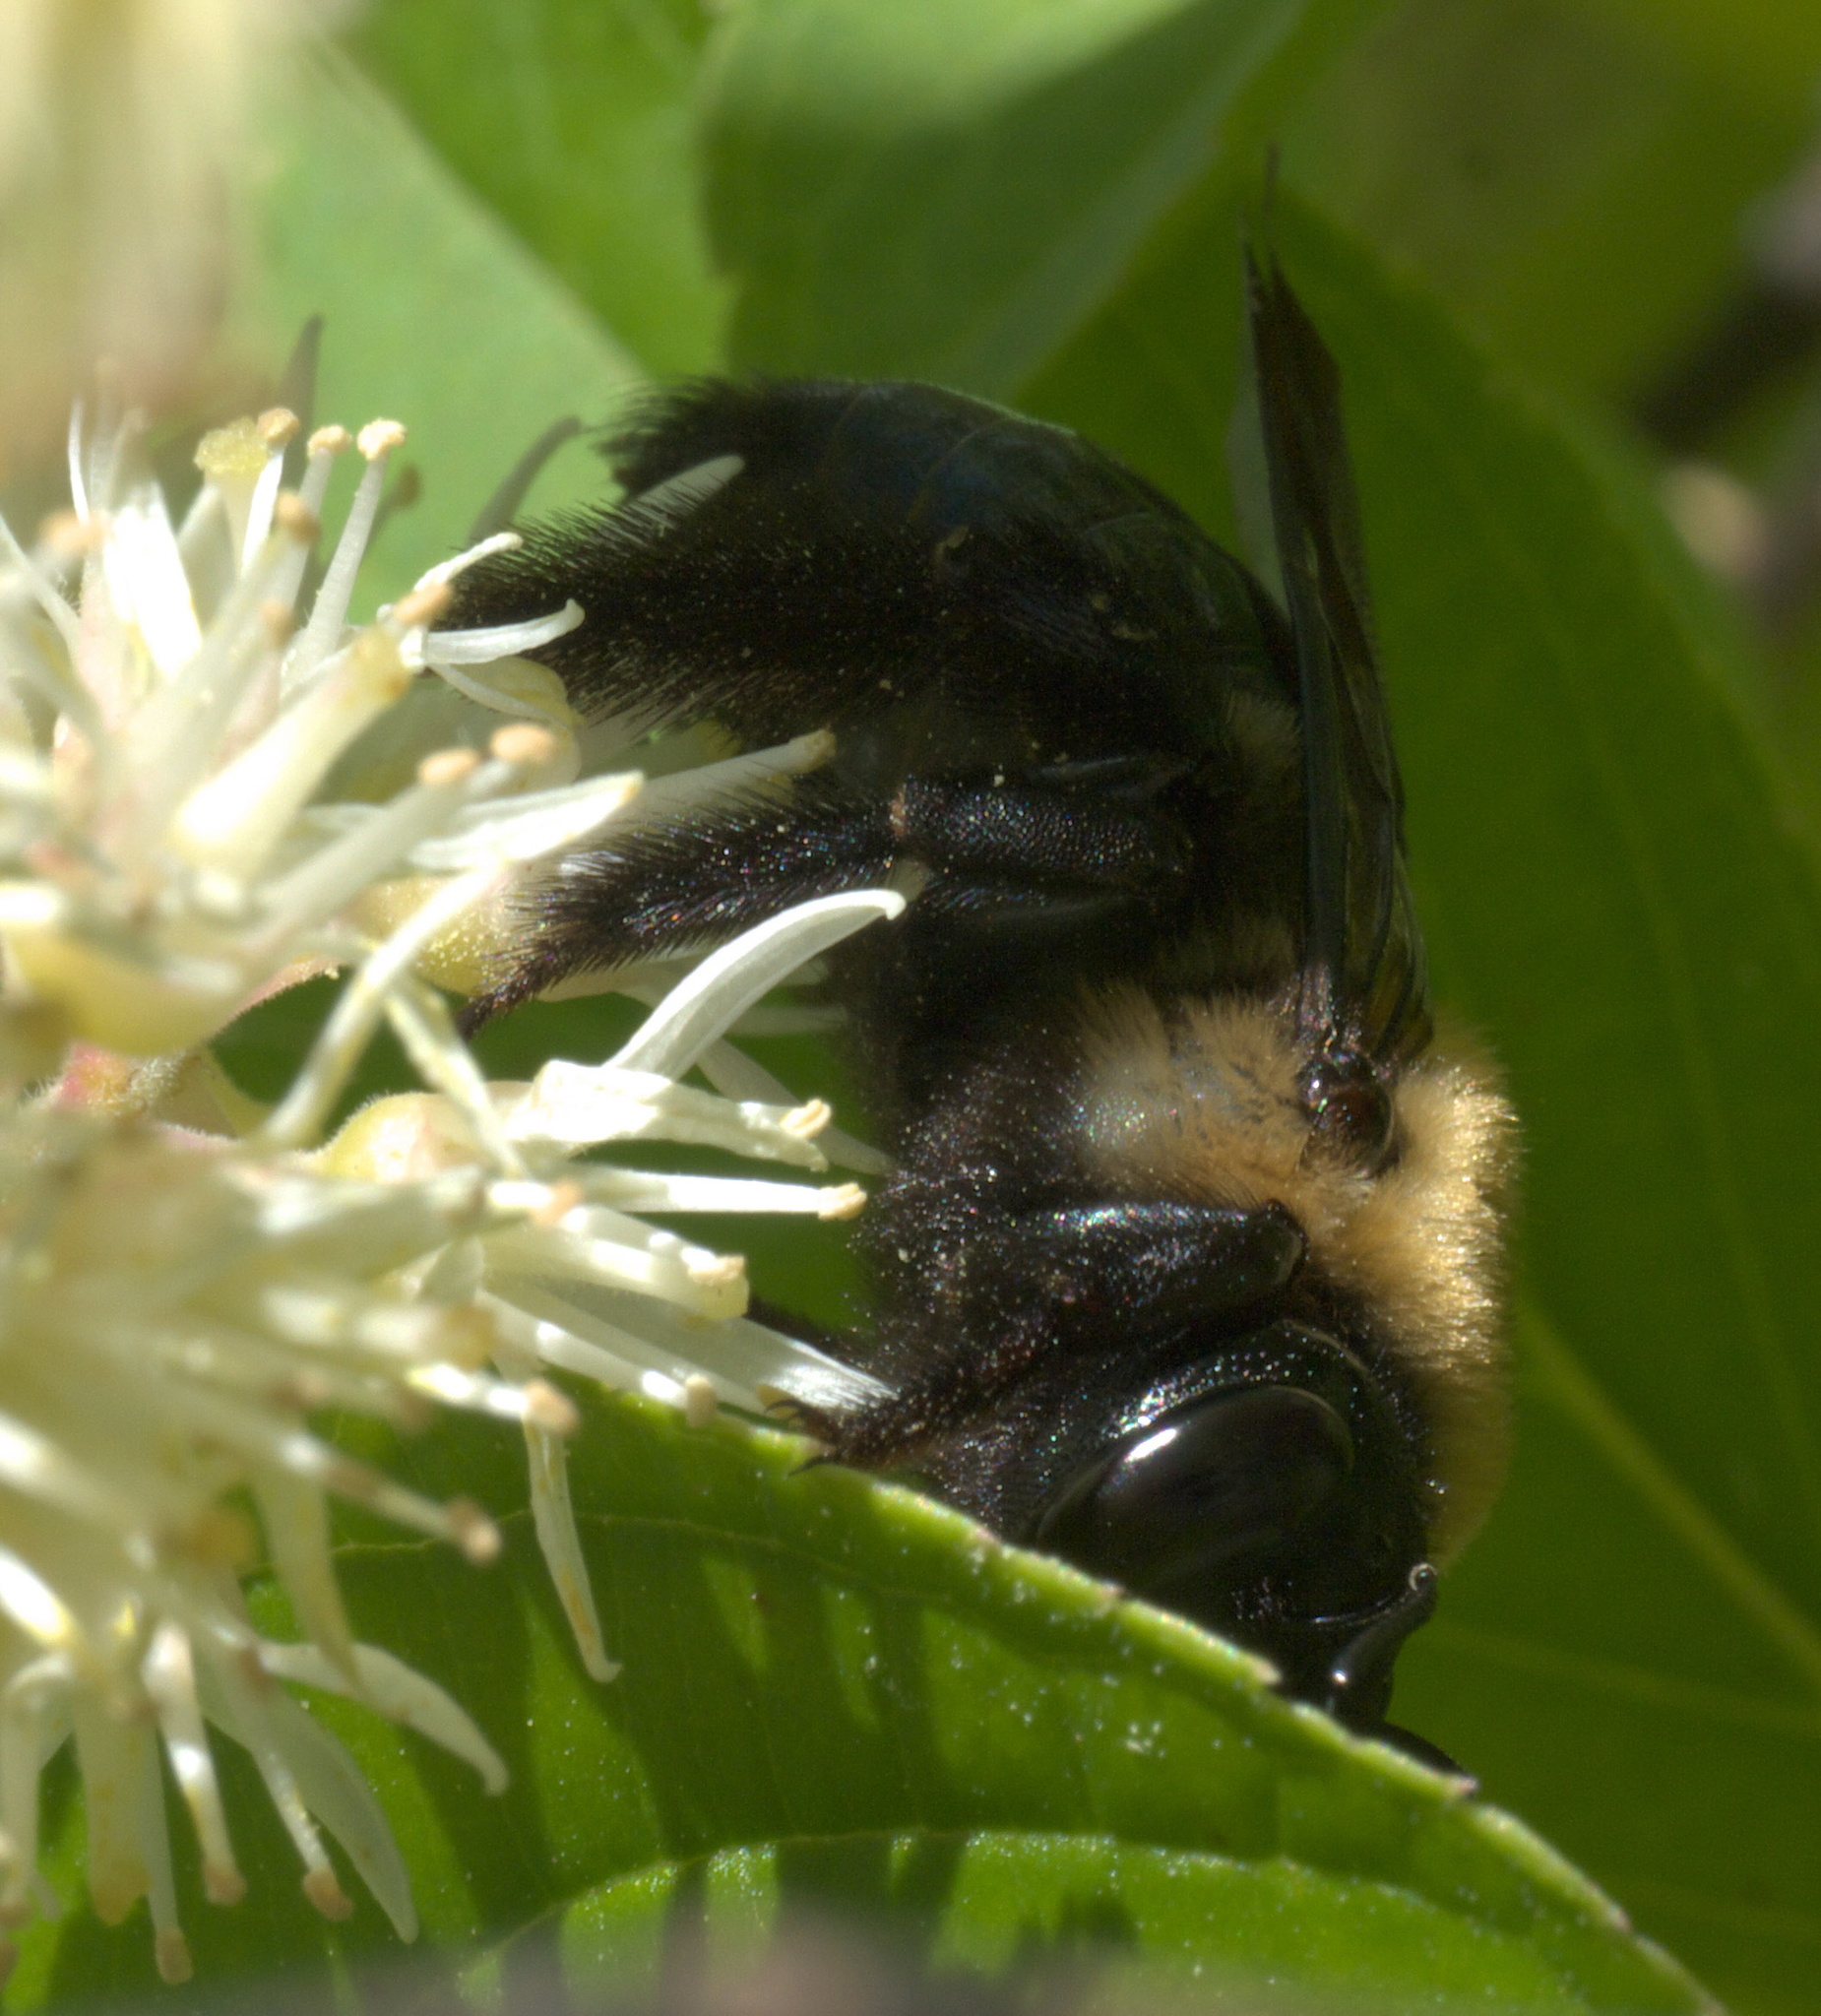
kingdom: Animalia
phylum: Arthropoda
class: Insecta
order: Hymenoptera
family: Apidae
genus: Xylocopa
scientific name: Xylocopa virginica
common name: Carpenter bee
